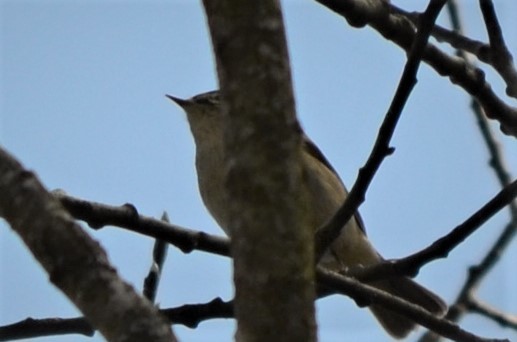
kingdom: Animalia
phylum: Chordata
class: Aves
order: Passeriformes
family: Phylloscopidae
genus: Phylloscopus
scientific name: Phylloscopus collybita
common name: Common chiffchaff
